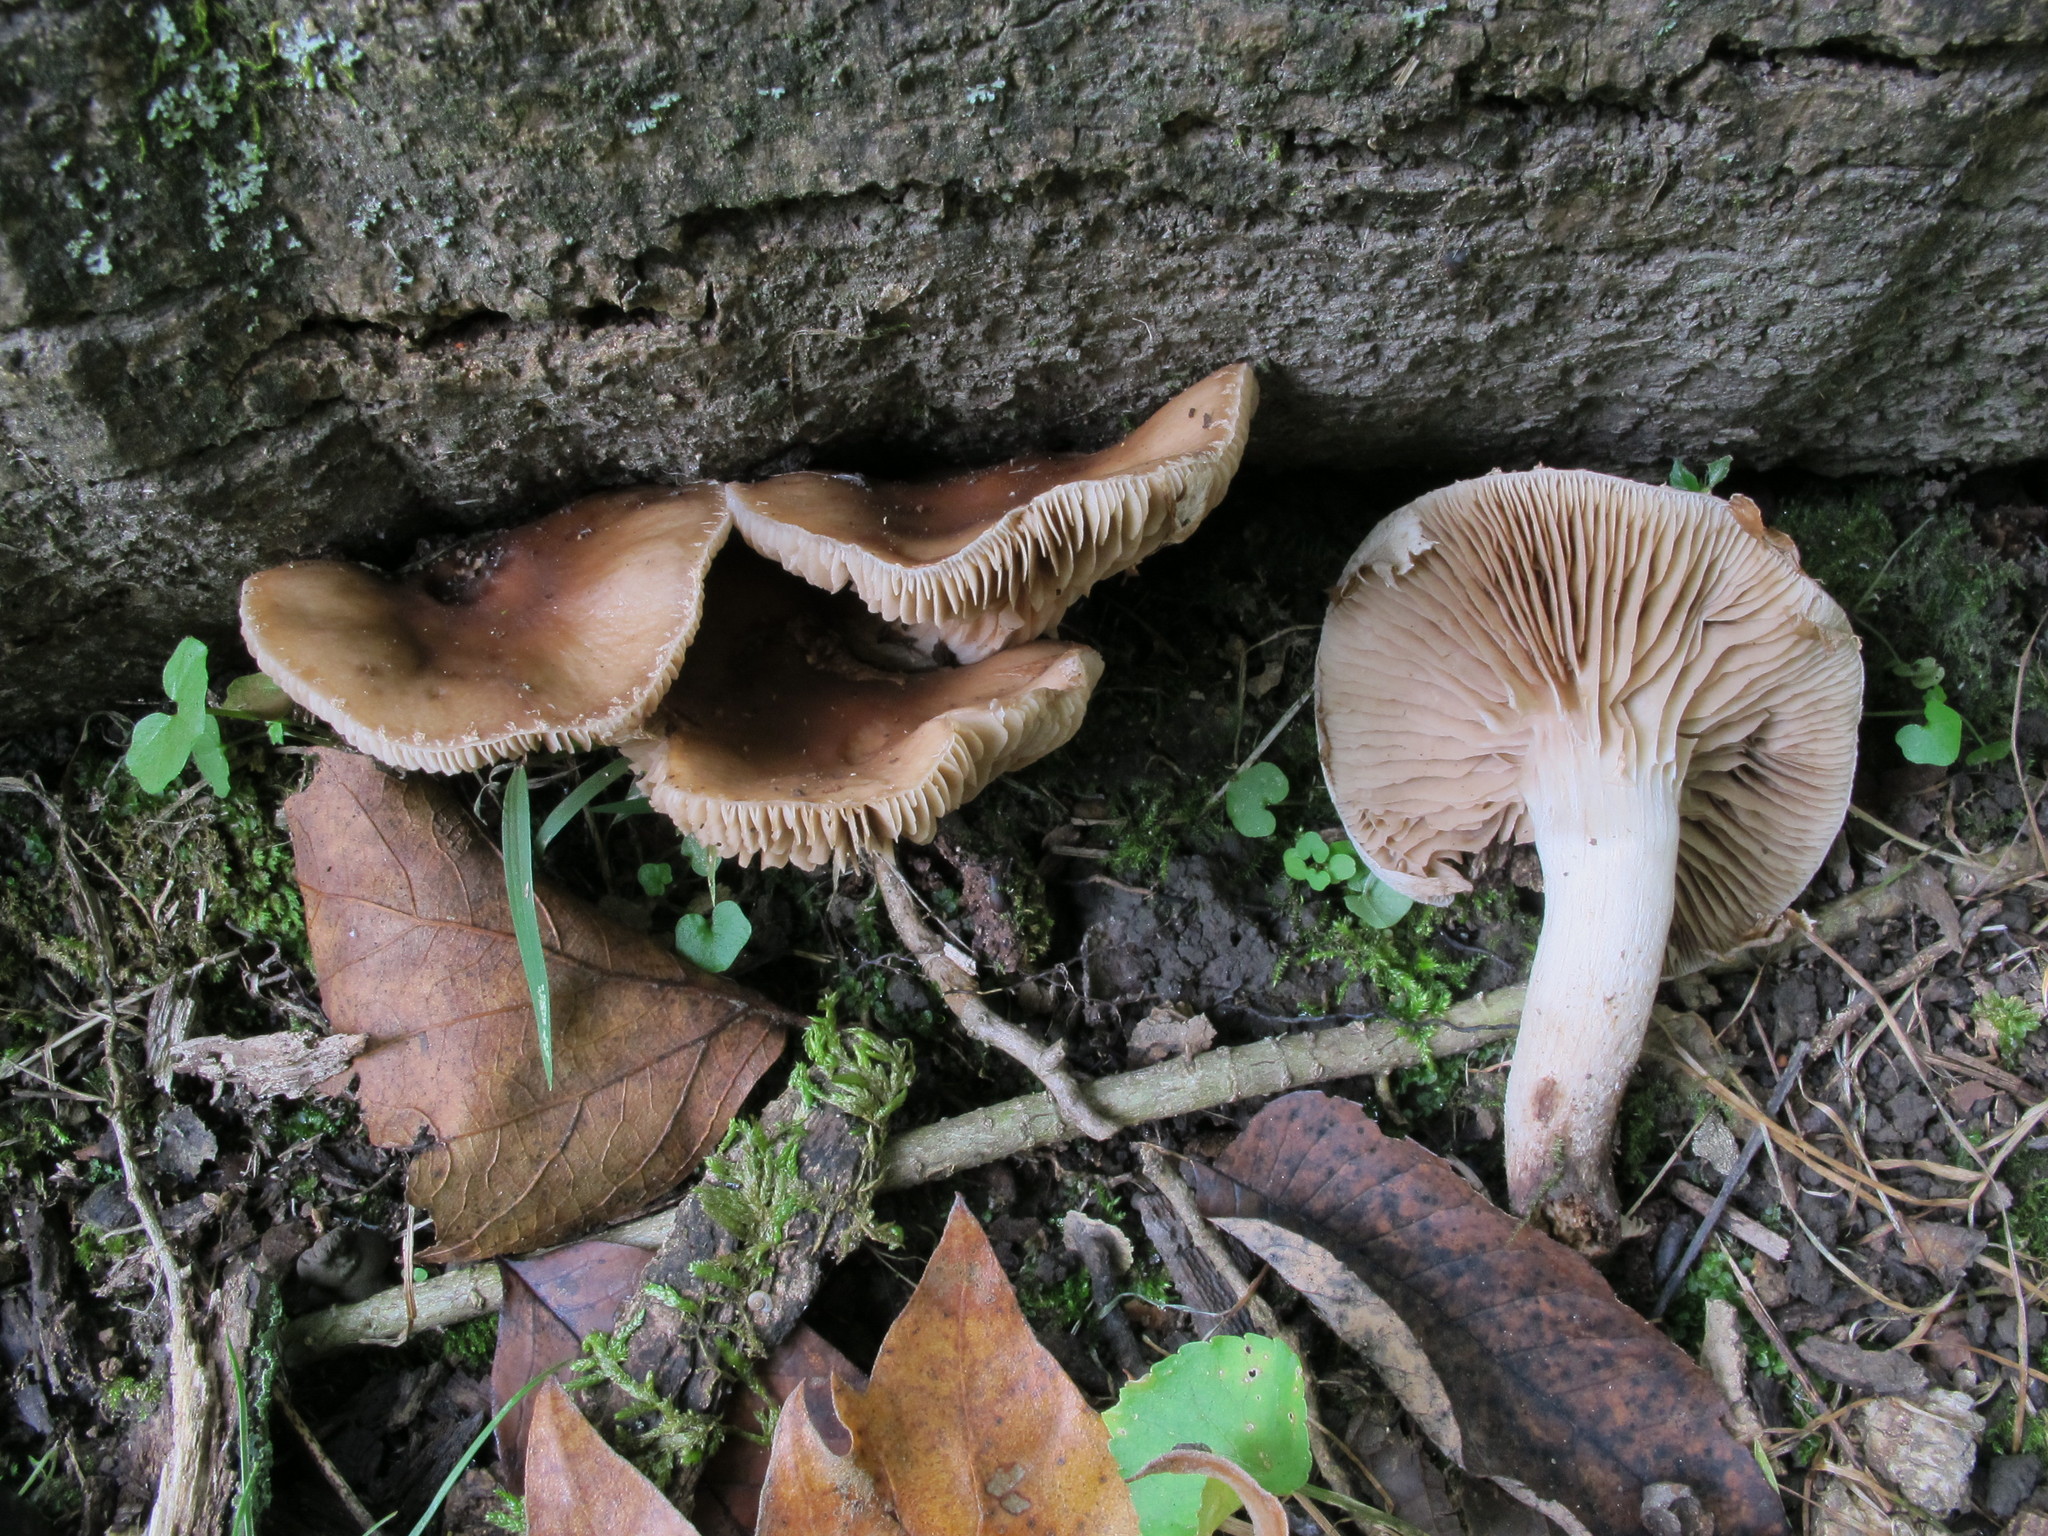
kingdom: Fungi
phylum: Basidiomycota
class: Agaricomycetes
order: Agaricales
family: Tubariaceae
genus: Cyclocybe
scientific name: Cyclocybe erebia
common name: Dark fieldcap
